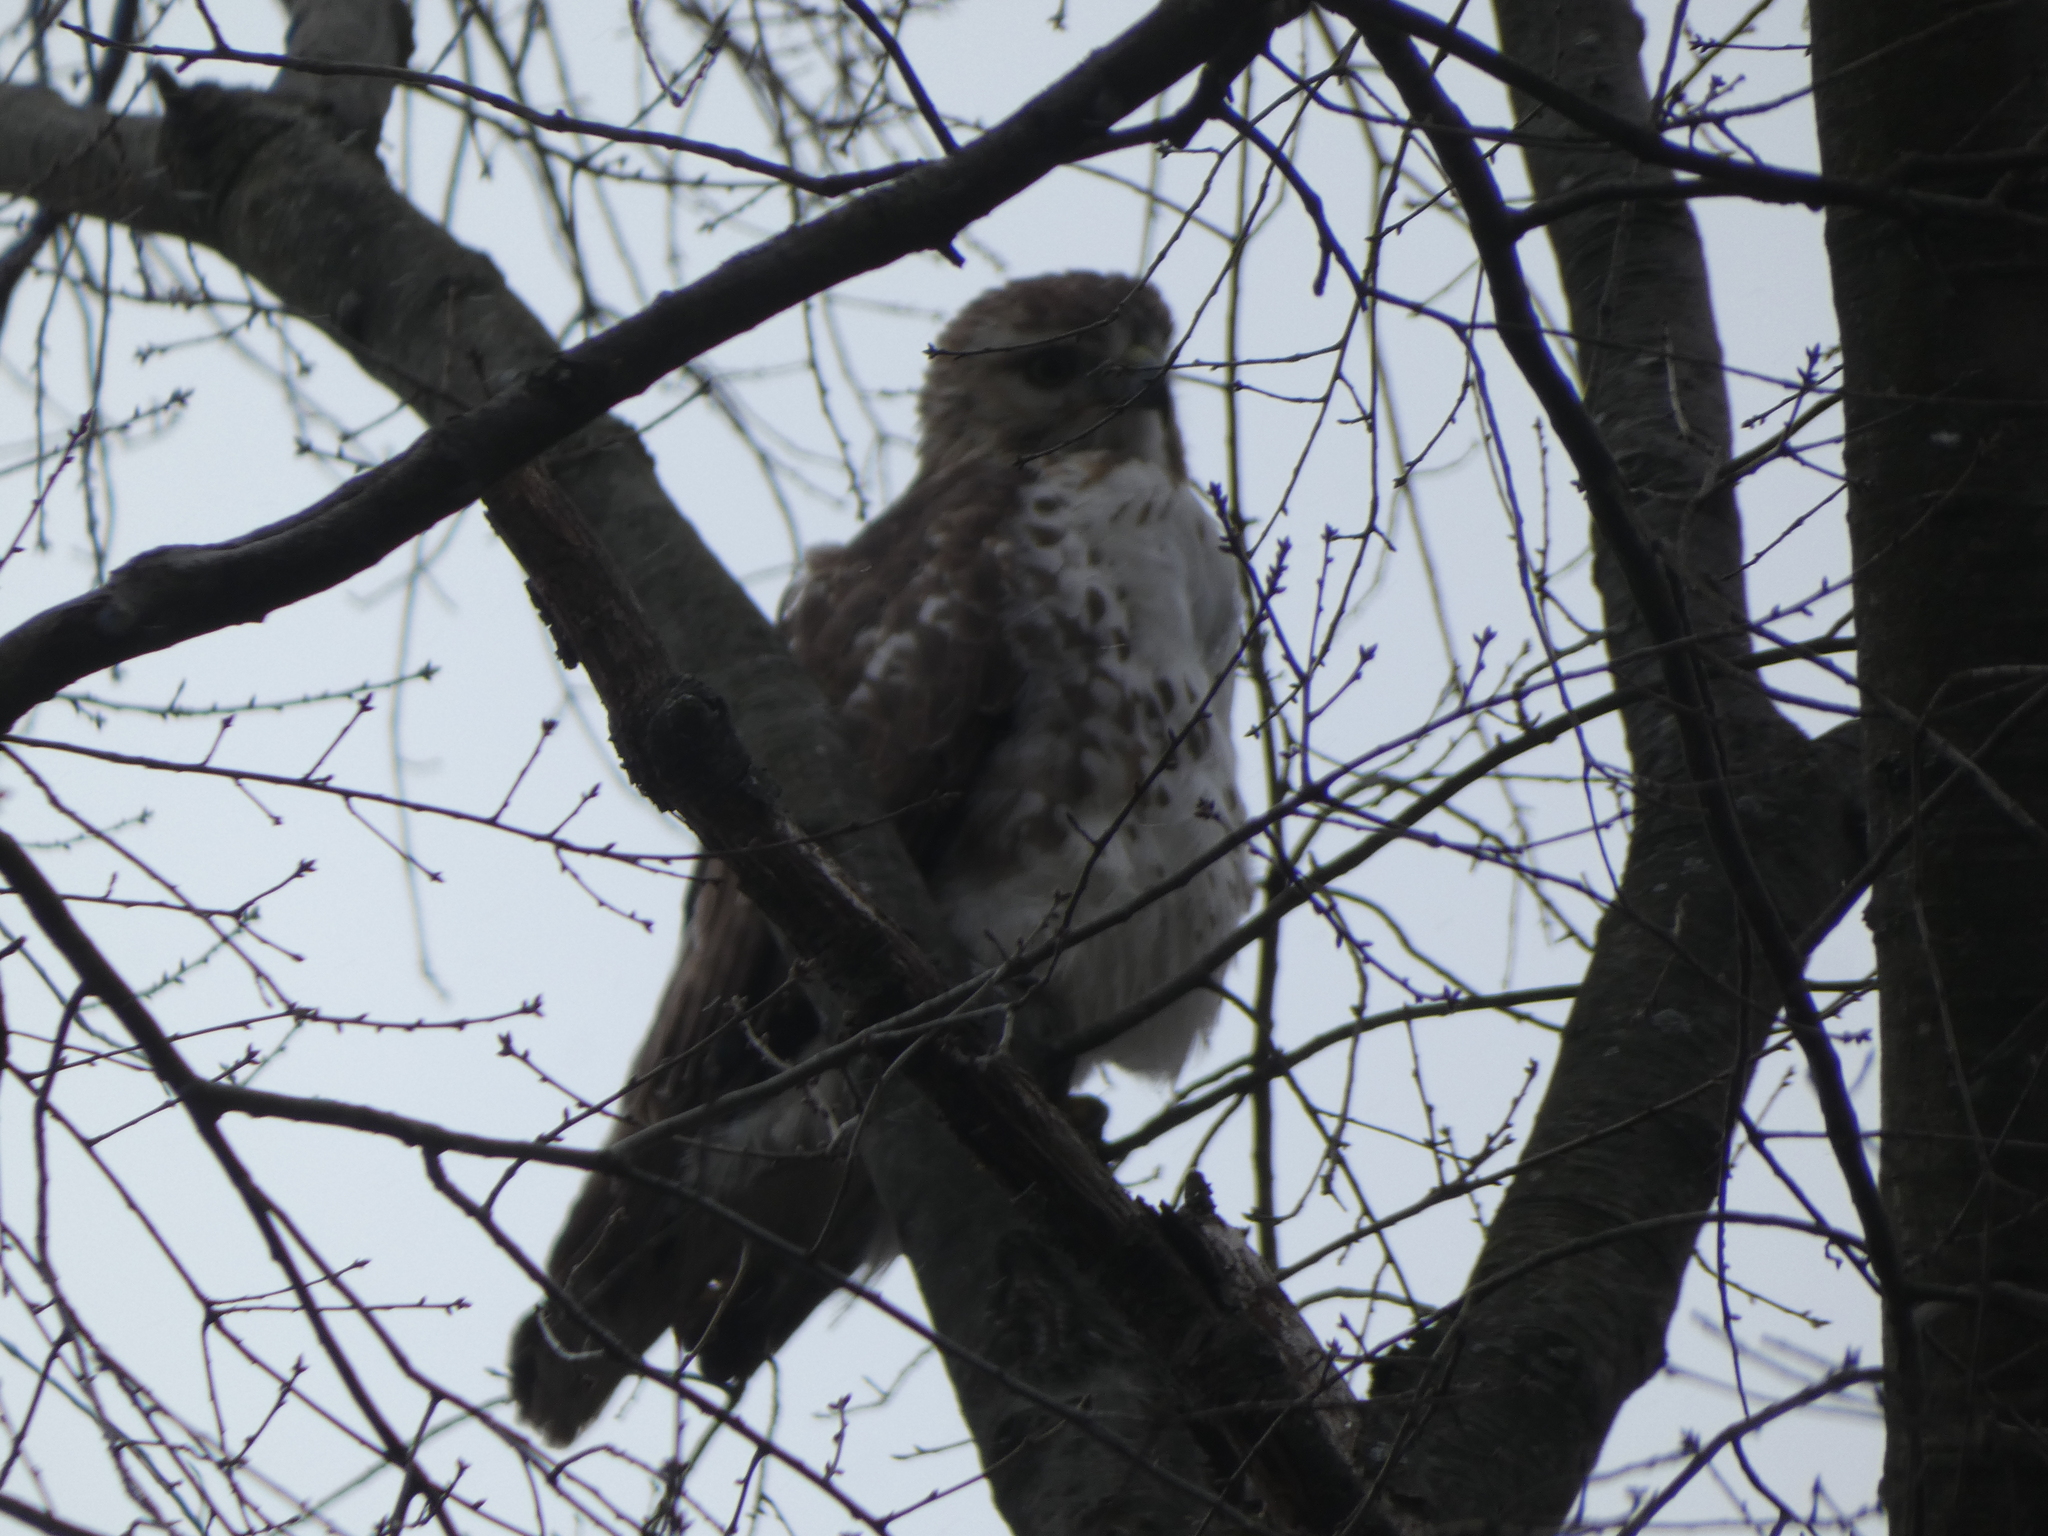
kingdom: Animalia
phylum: Chordata
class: Aves
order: Accipitriformes
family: Accipitridae
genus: Buteo
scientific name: Buteo jamaicensis
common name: Red-tailed hawk
